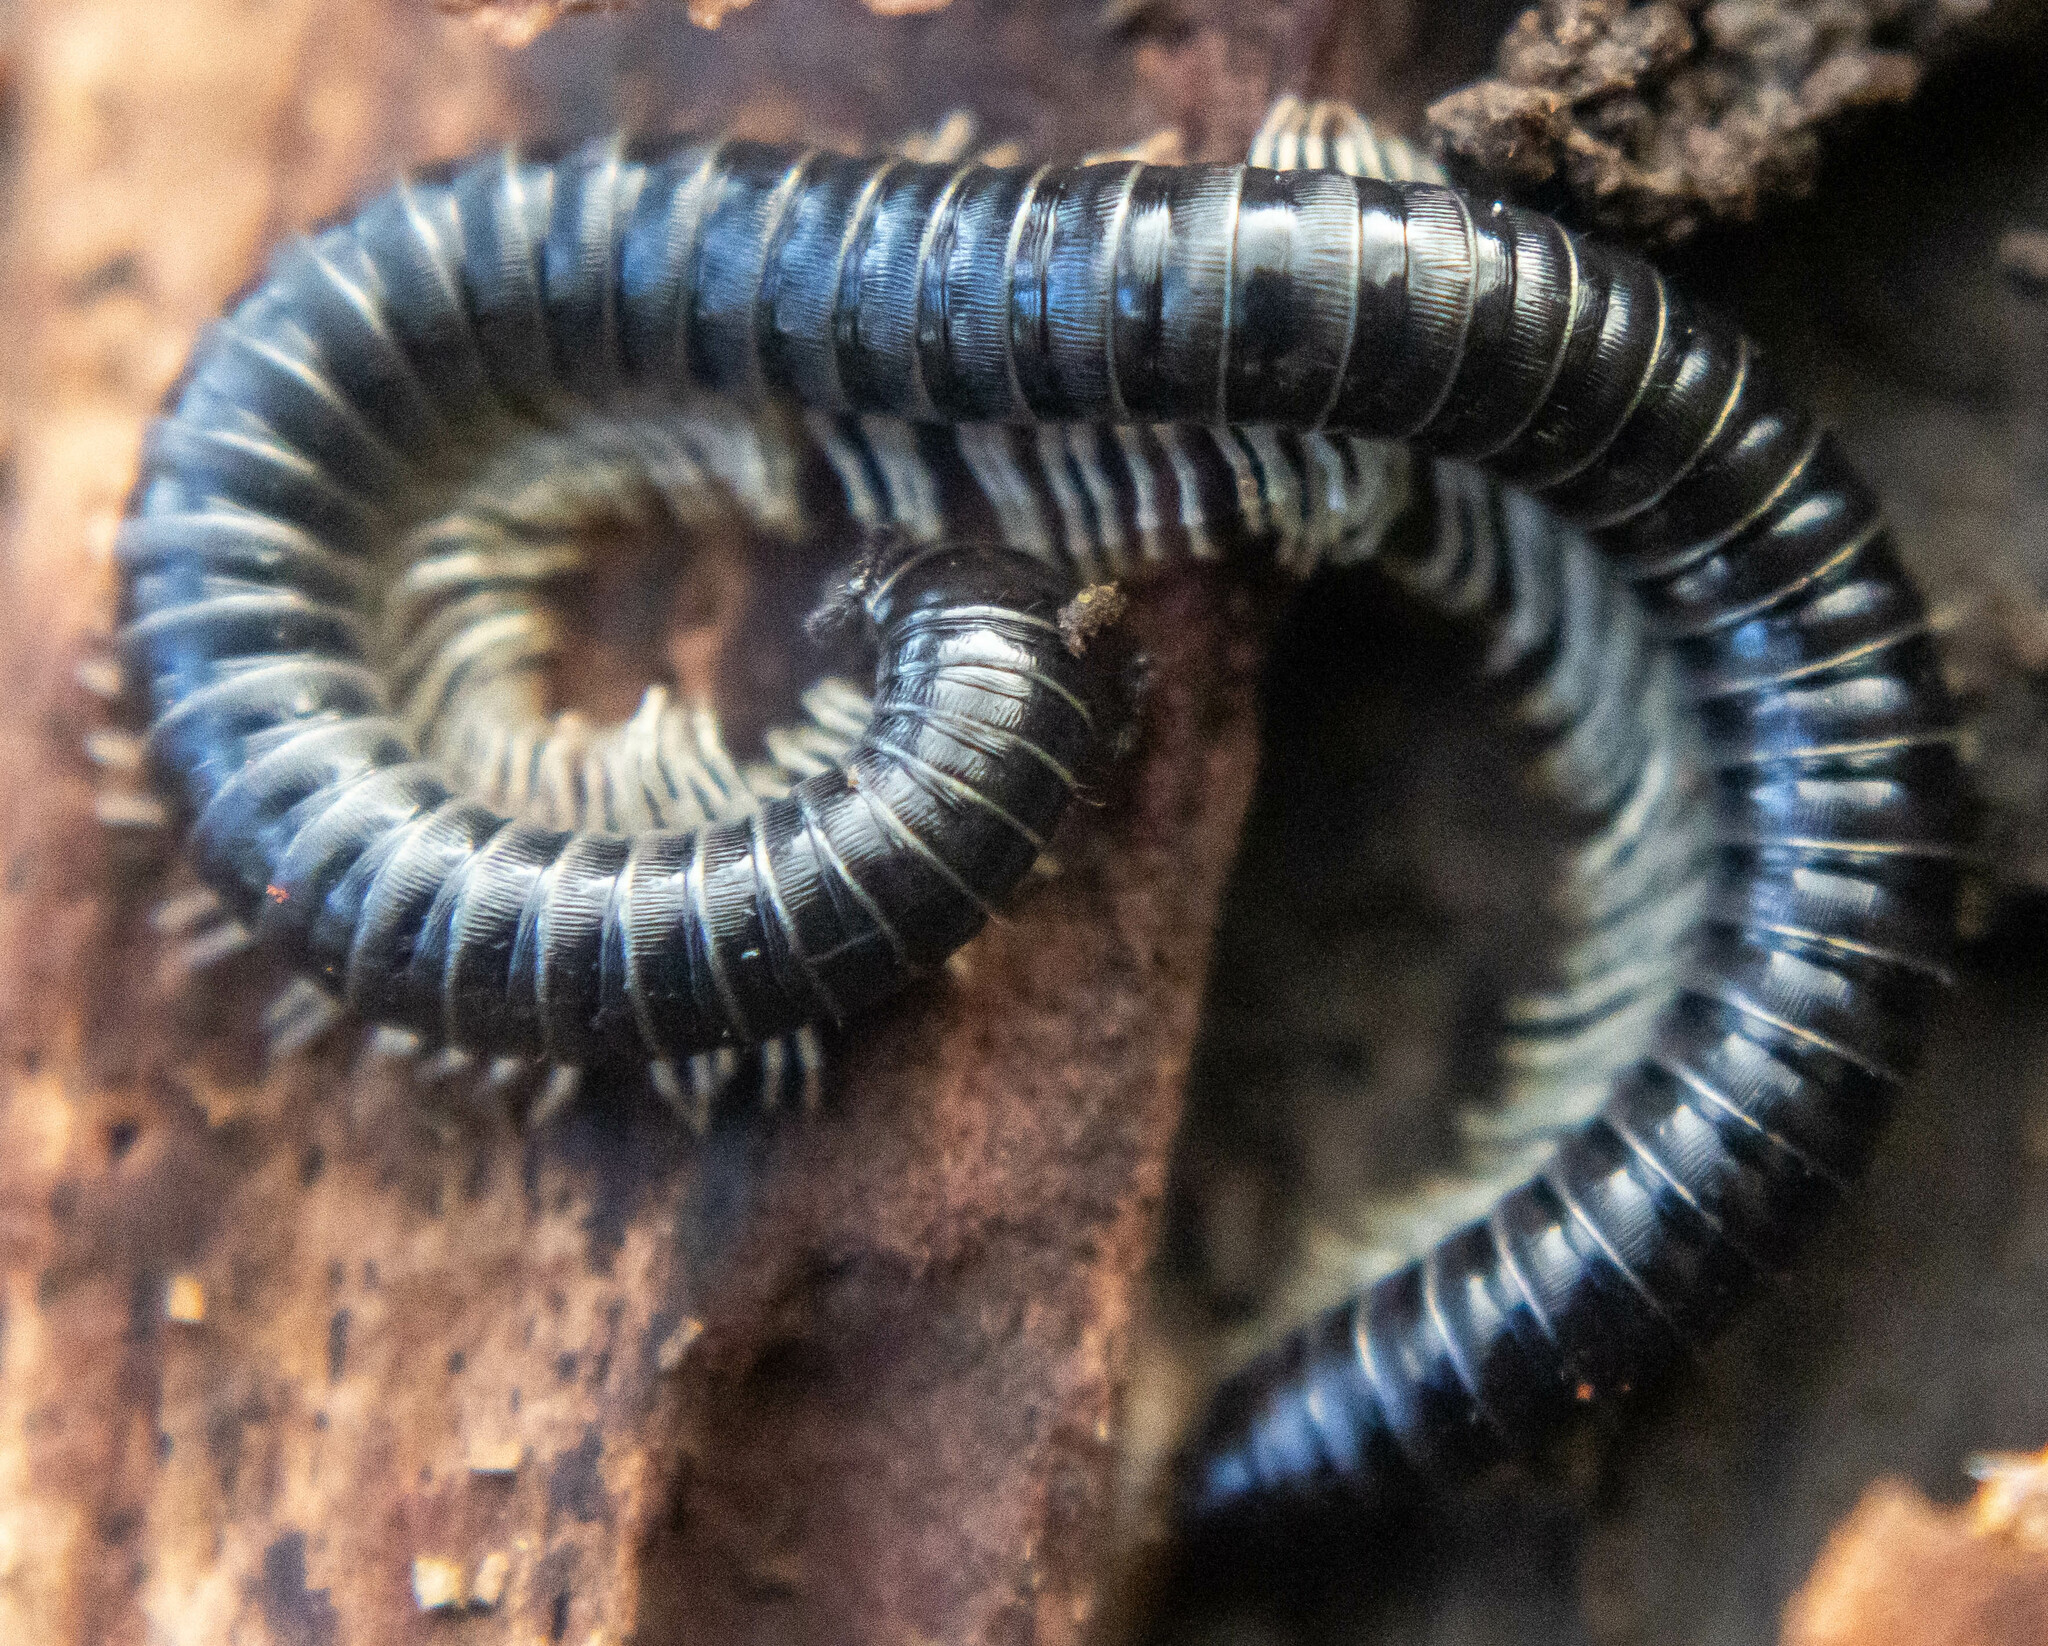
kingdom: Animalia
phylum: Arthropoda
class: Diplopoda
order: Julida
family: Julidae
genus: Tachypodoiulus
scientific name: Tachypodoiulus niger
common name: White-legged snake millipede
